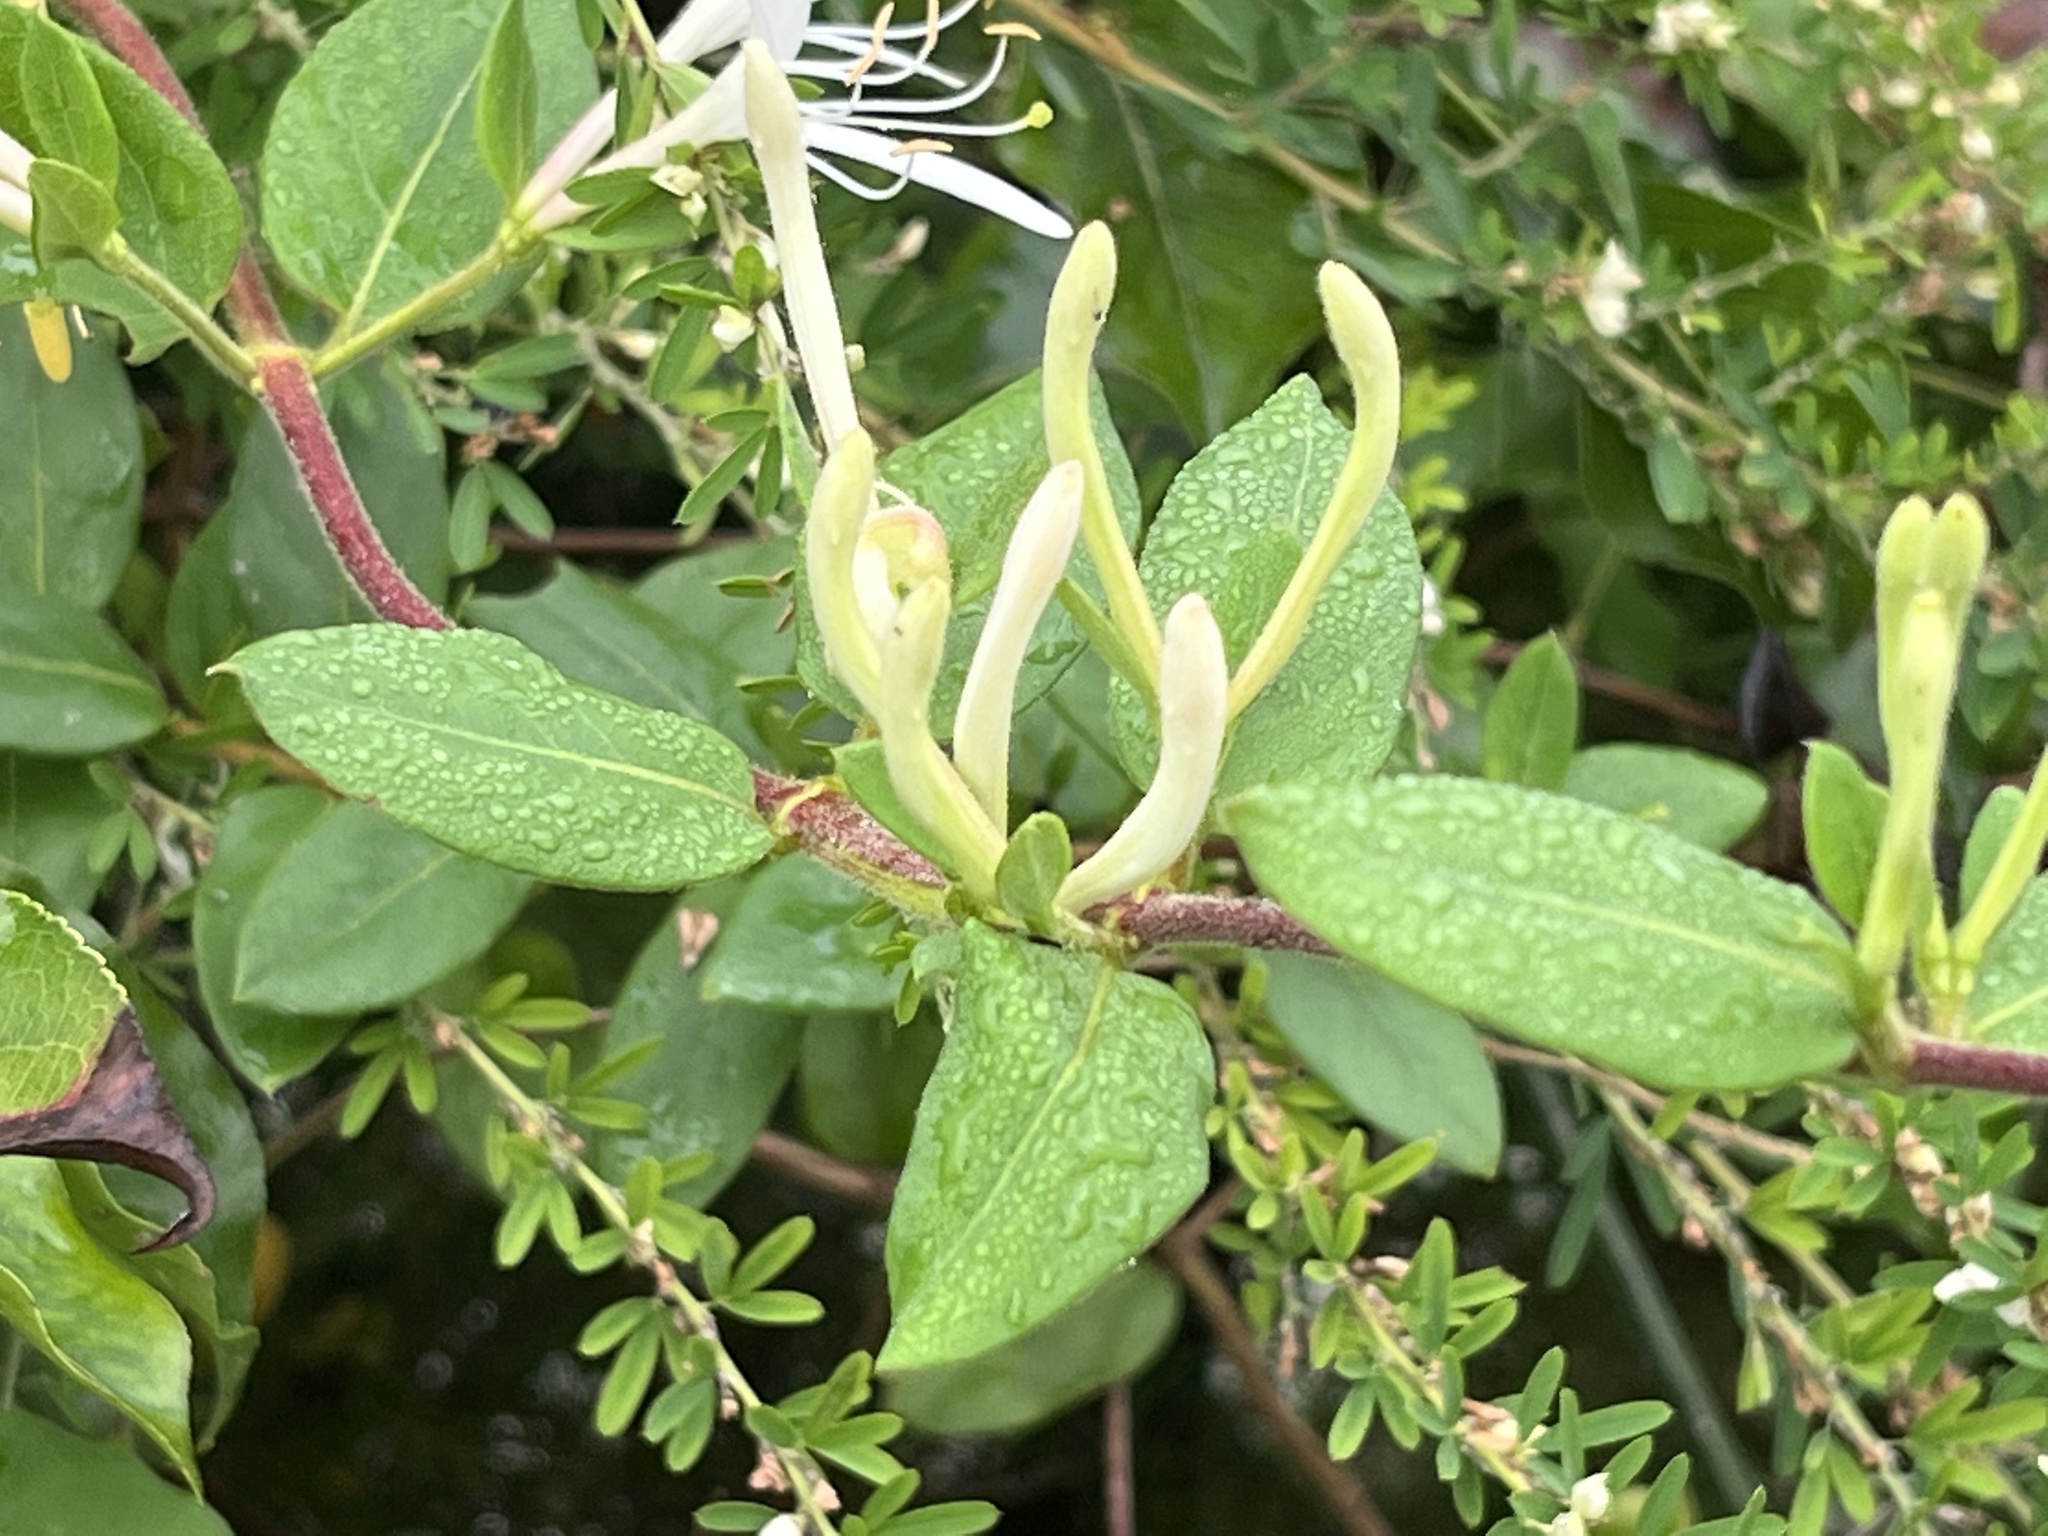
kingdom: Plantae
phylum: Tracheophyta
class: Magnoliopsida
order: Dipsacales
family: Caprifoliaceae
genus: Lonicera
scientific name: Lonicera japonica
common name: Japanese honeysuckle
